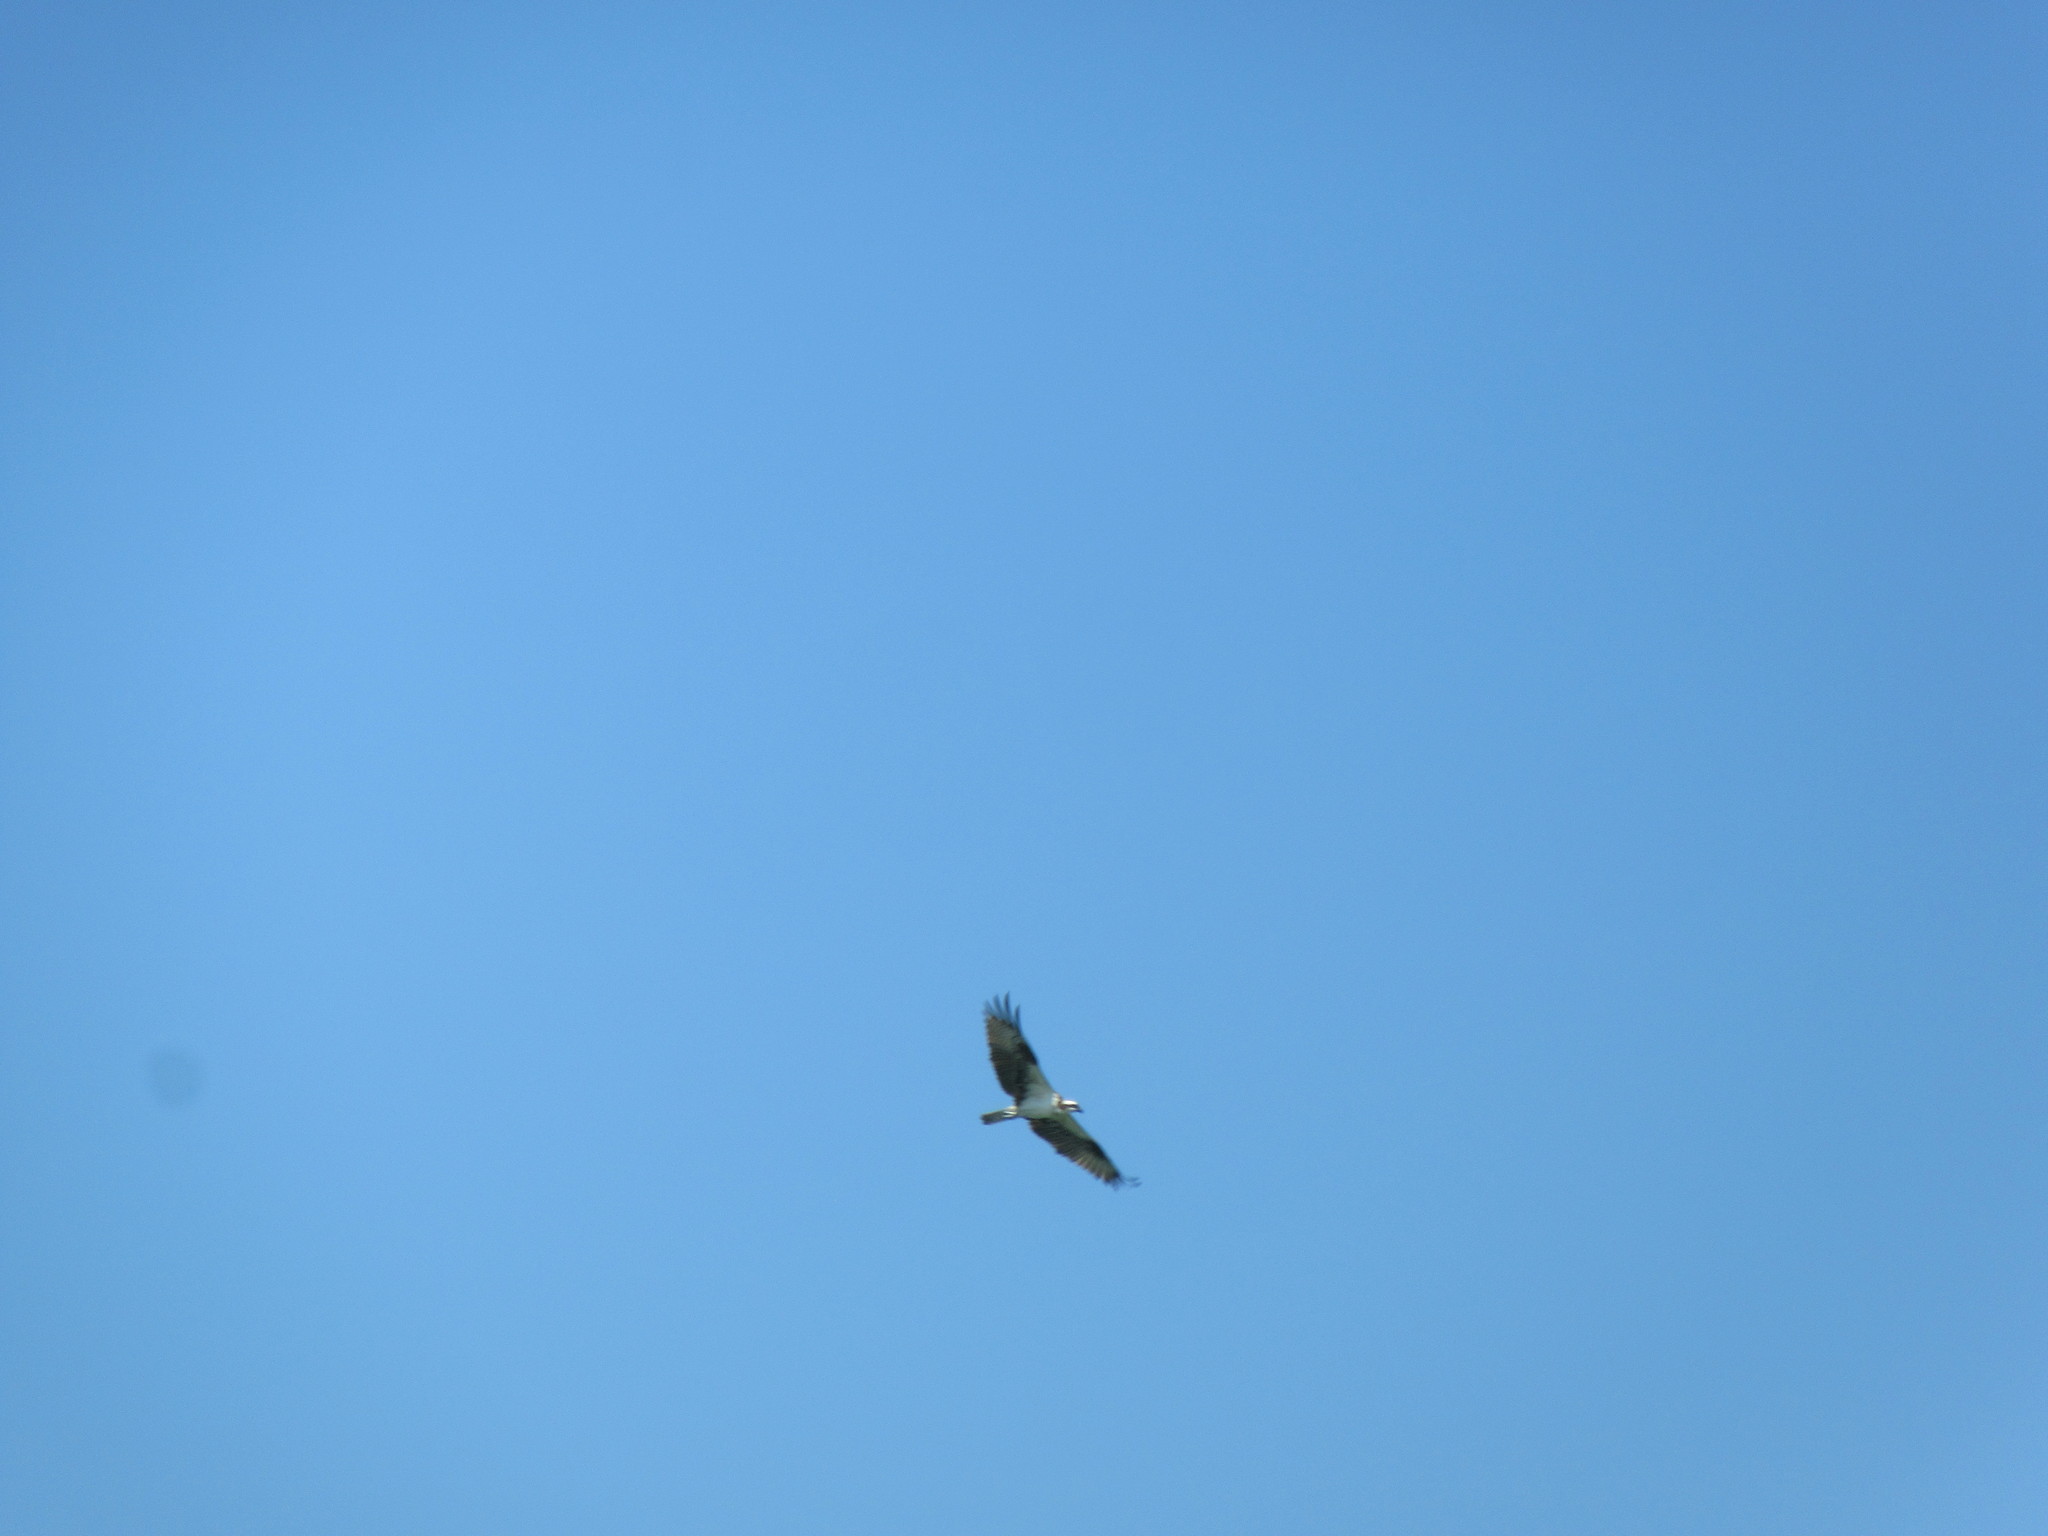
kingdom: Animalia
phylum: Chordata
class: Aves
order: Accipitriformes
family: Pandionidae
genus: Pandion
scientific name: Pandion haliaetus
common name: Osprey
